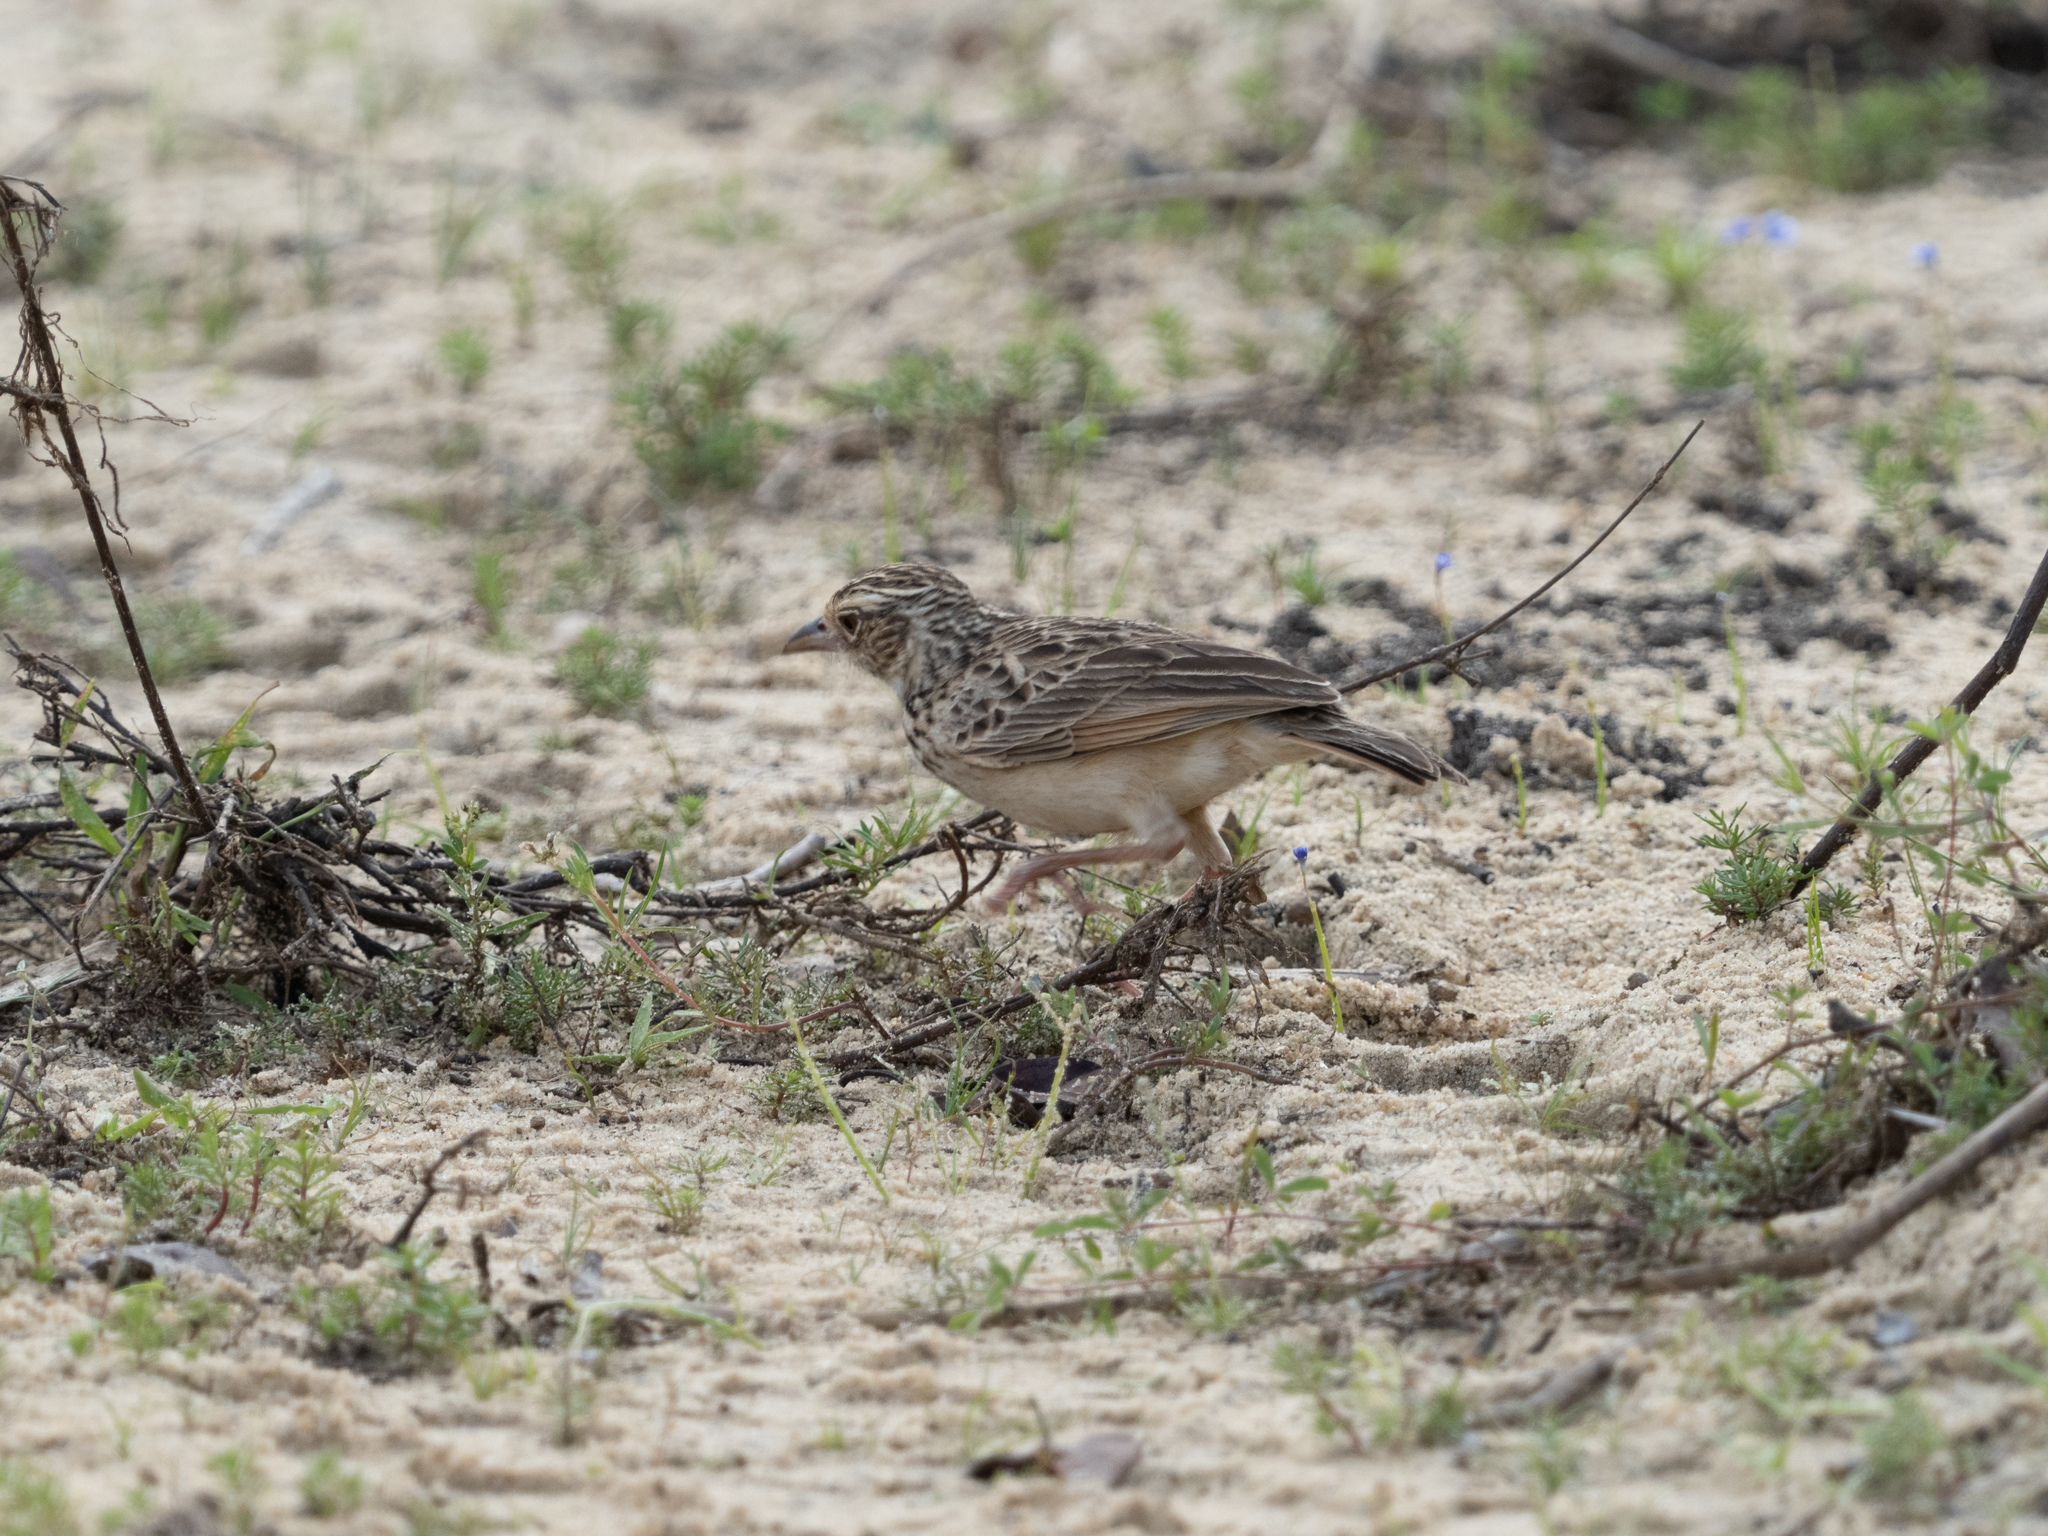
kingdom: Animalia
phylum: Chordata
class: Aves
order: Passeriformes
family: Alaudidae
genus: Mirafra
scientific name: Mirafra affinis
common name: Jerdon's bushlark
